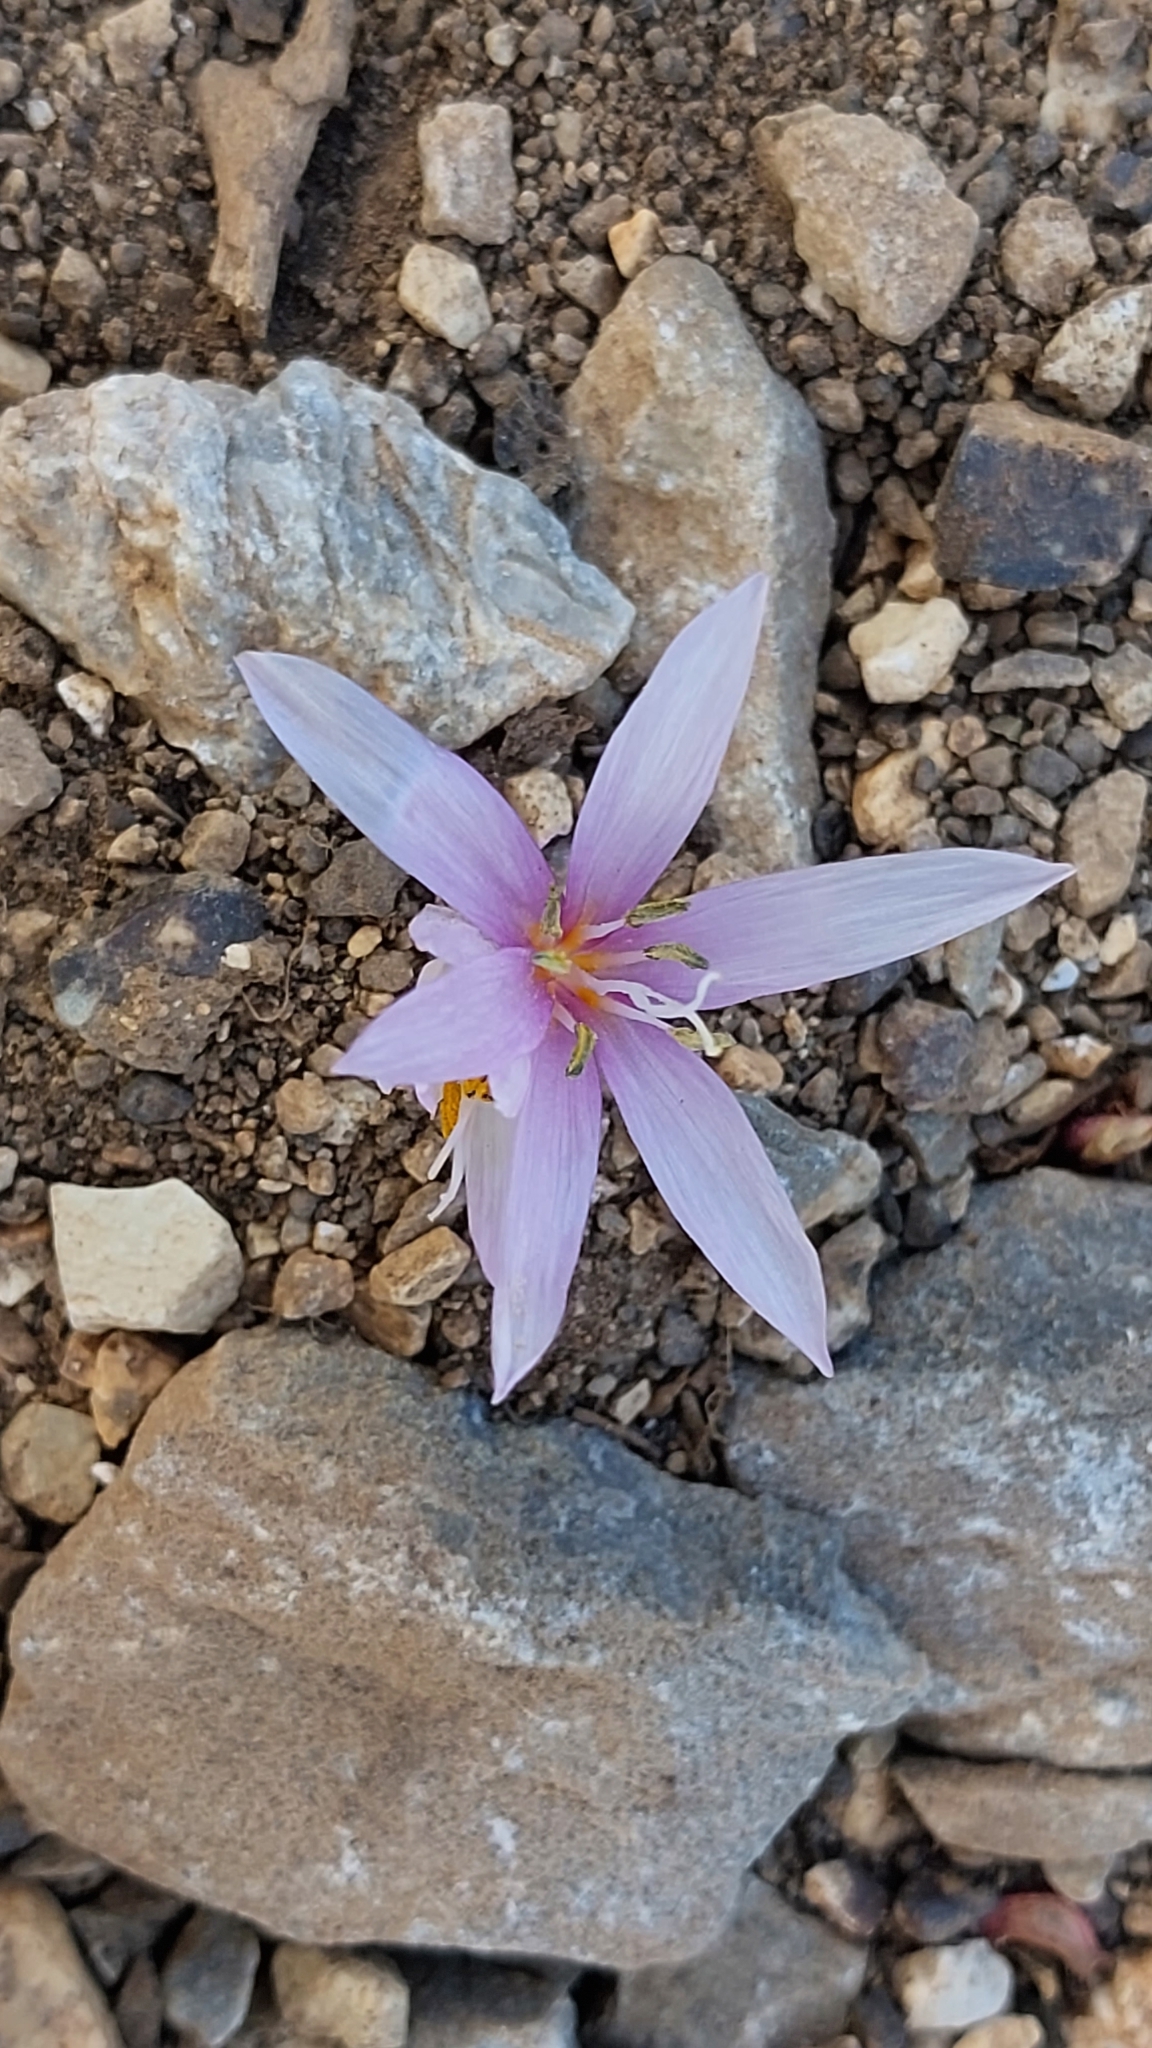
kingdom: Plantae
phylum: Tracheophyta
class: Liliopsida
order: Liliales
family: Colchicaceae
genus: Colchicum
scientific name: Colchicum cretense
